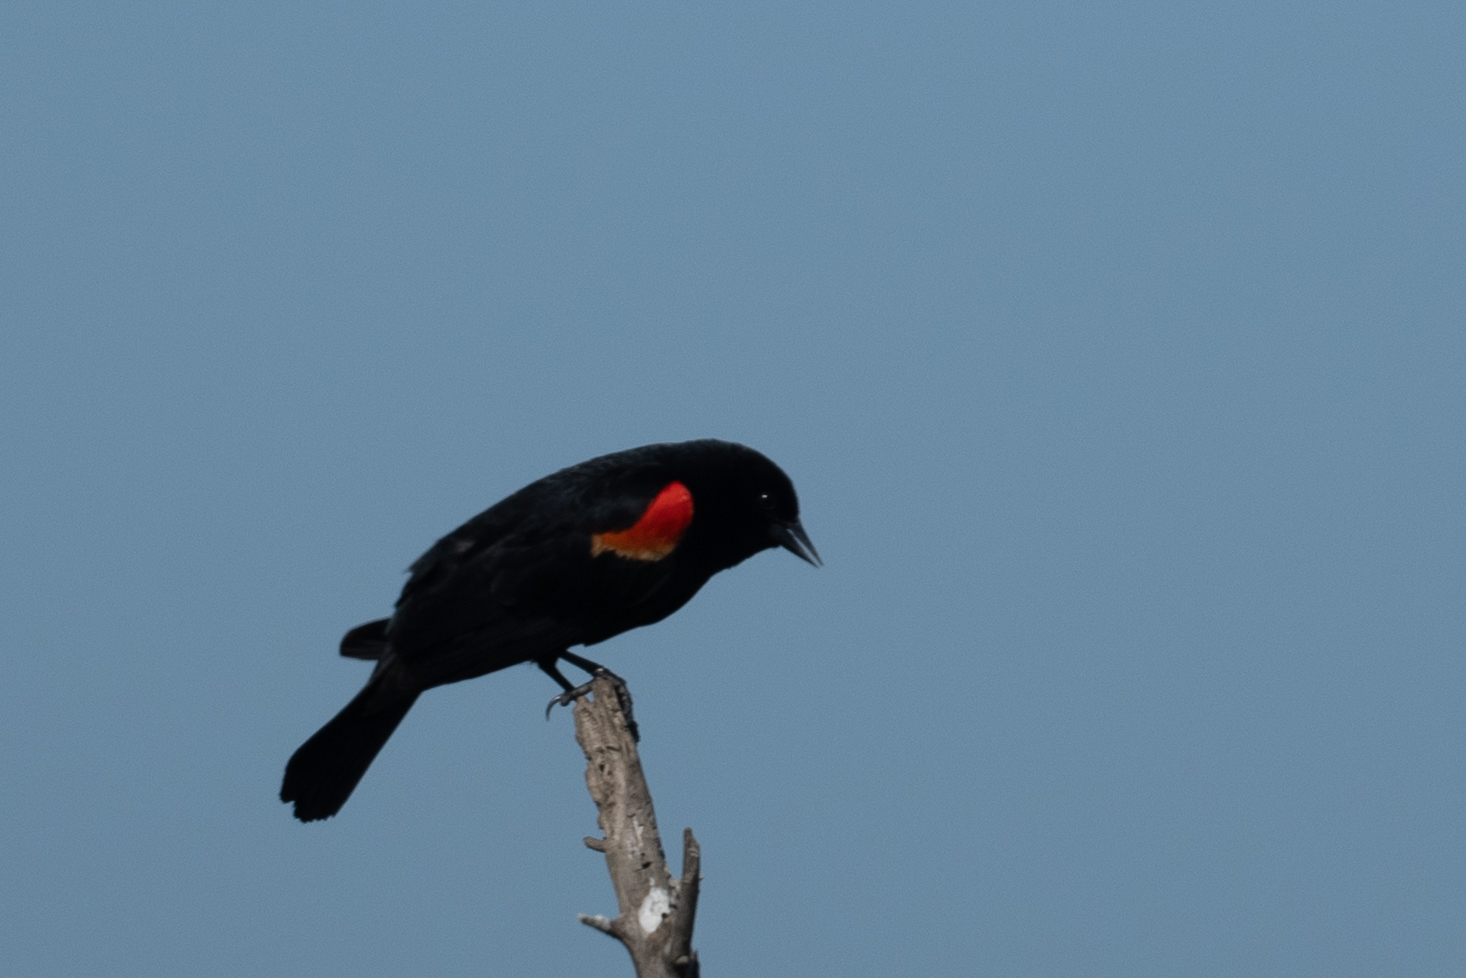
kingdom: Animalia
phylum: Chordata
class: Aves
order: Passeriformes
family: Icteridae
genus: Agelaius
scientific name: Agelaius phoeniceus
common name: Red-winged blackbird
